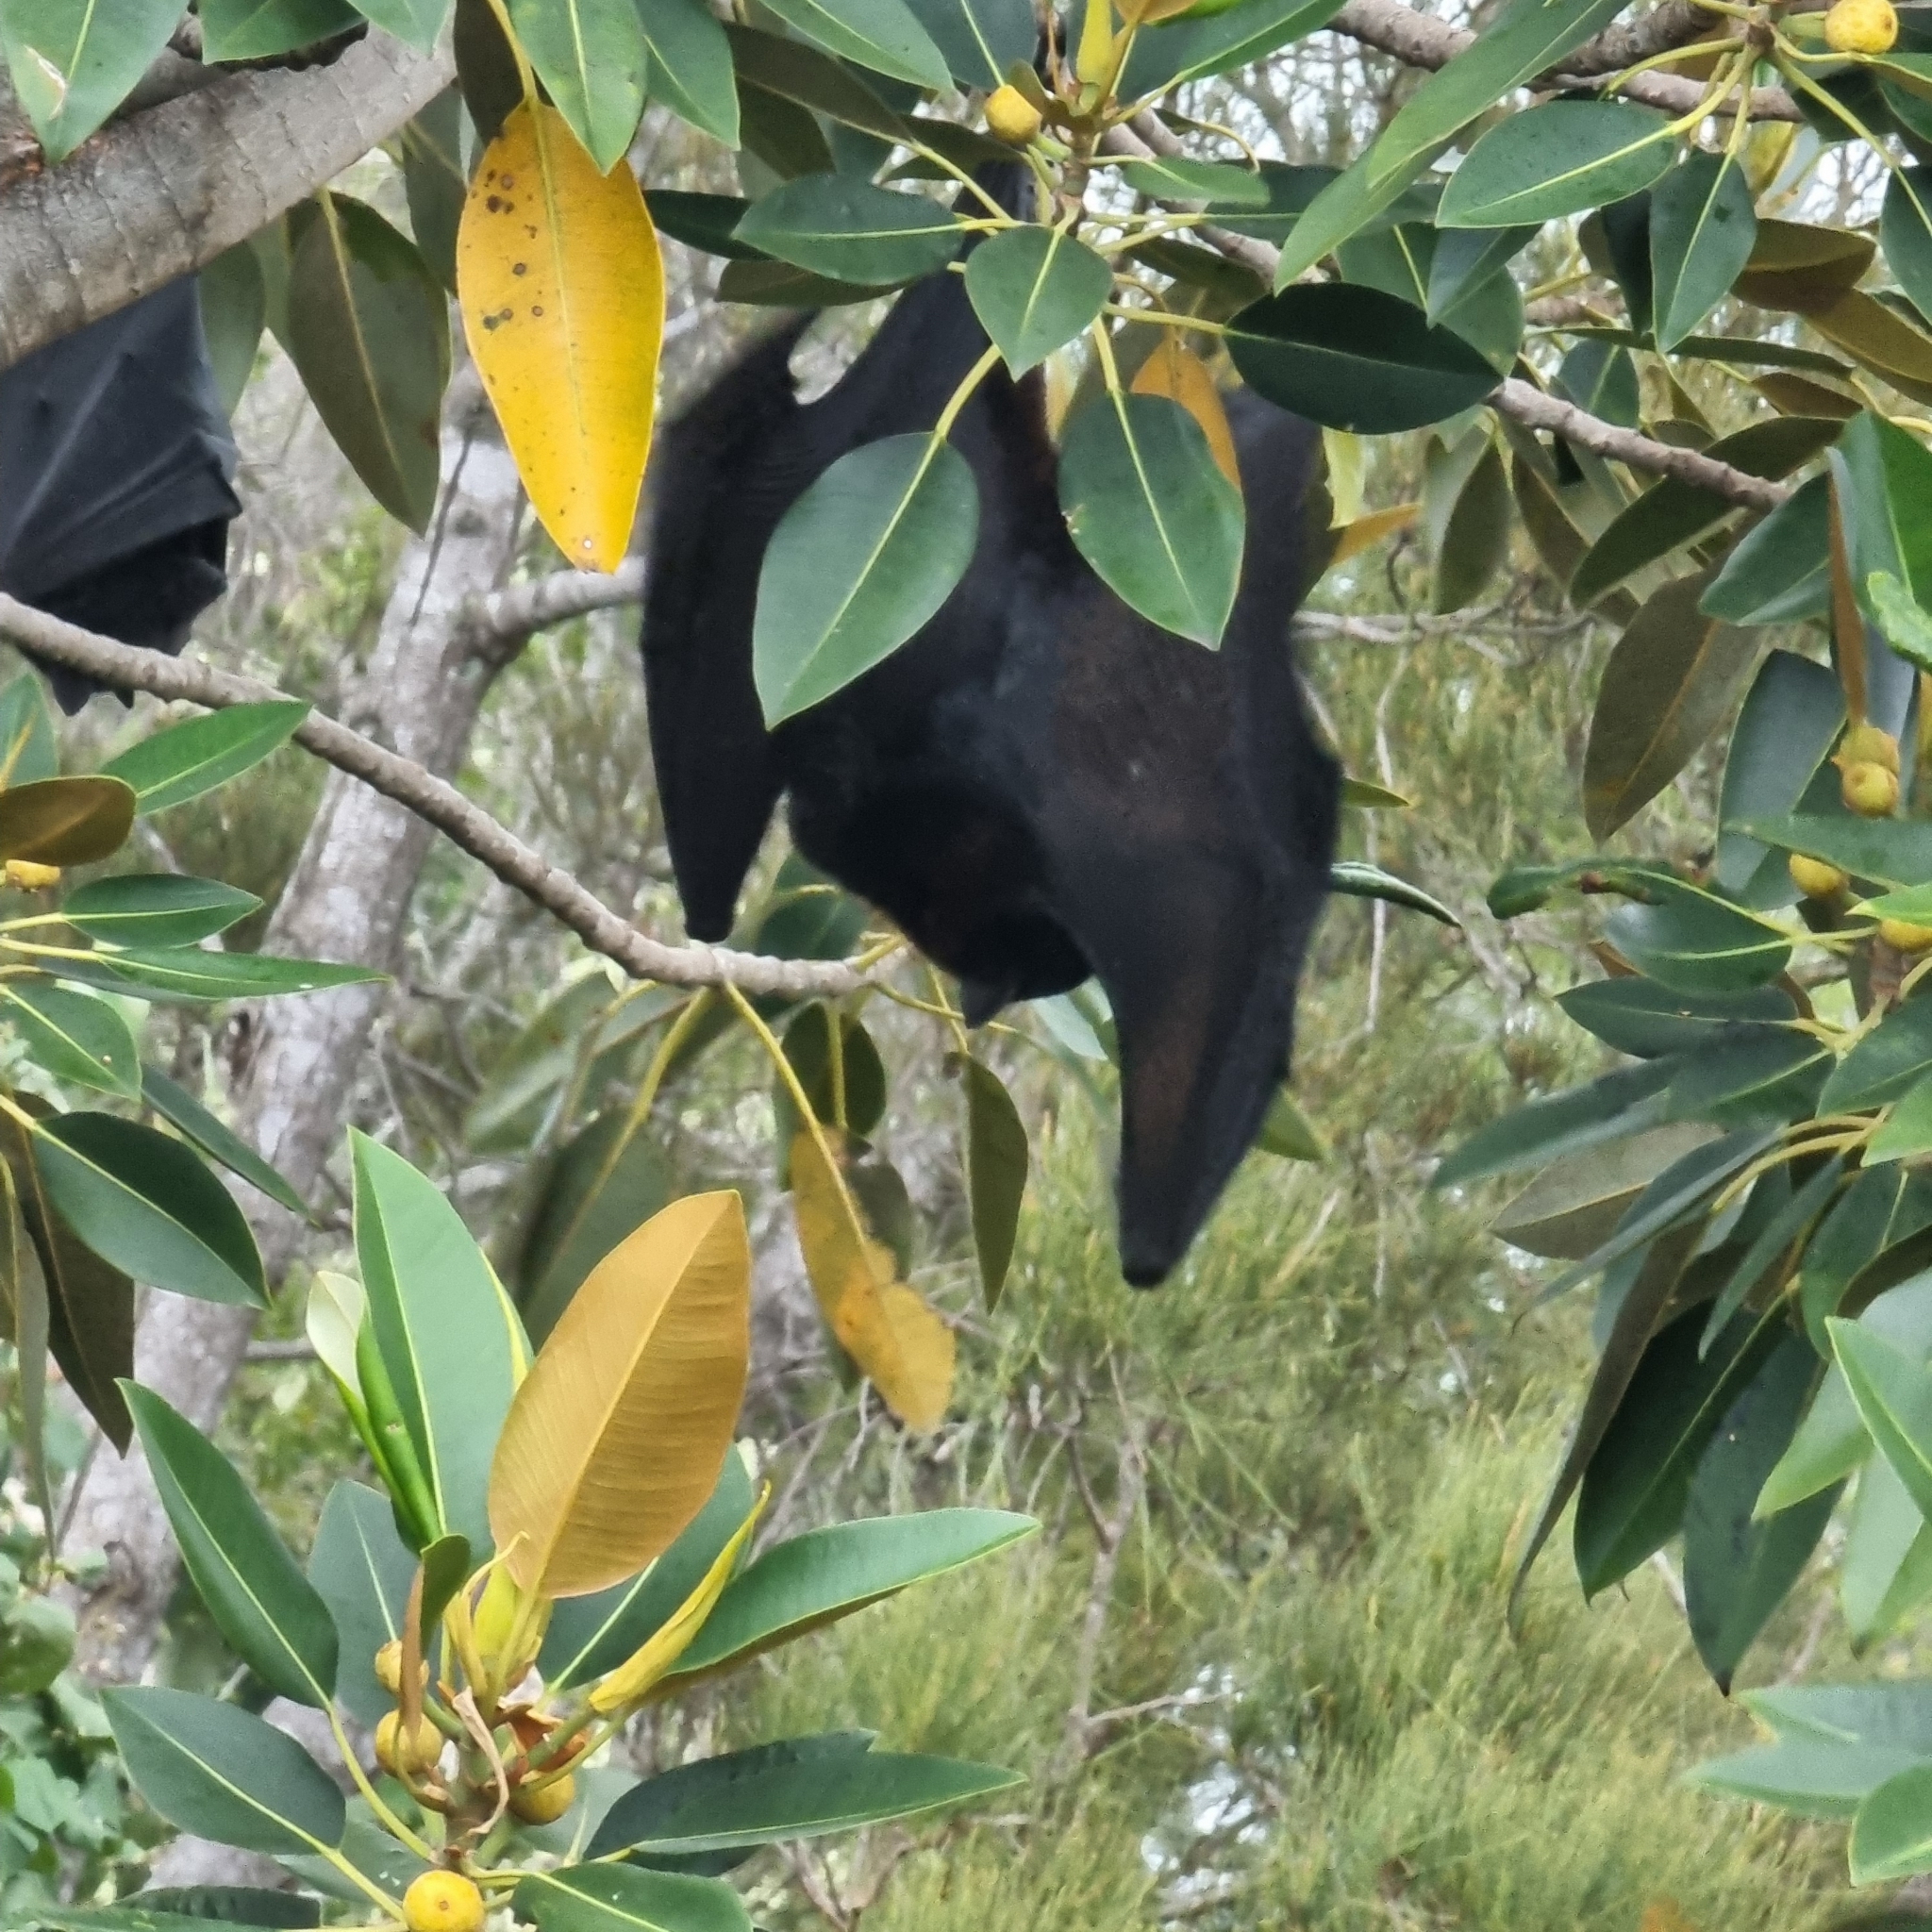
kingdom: Animalia
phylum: Chordata
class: Mammalia
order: Chiroptera
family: Pteropodidae
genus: Pteropus
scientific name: Pteropus alecto
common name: Black flying fox
